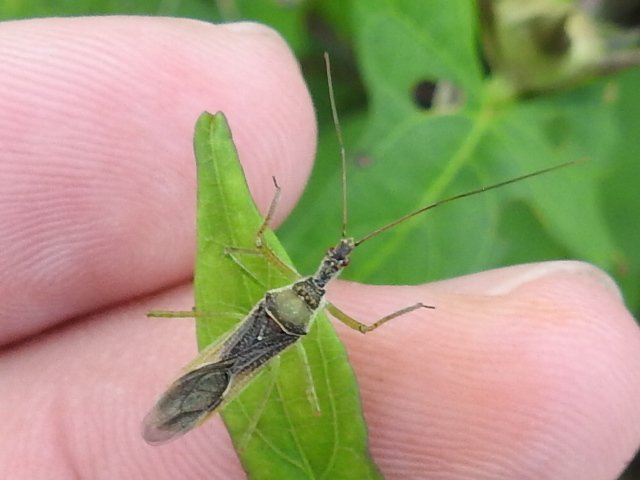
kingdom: Animalia
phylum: Arthropoda
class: Insecta
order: Hemiptera
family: Reduviidae
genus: Zelus
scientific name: Zelus renardii
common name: Assassin bug
